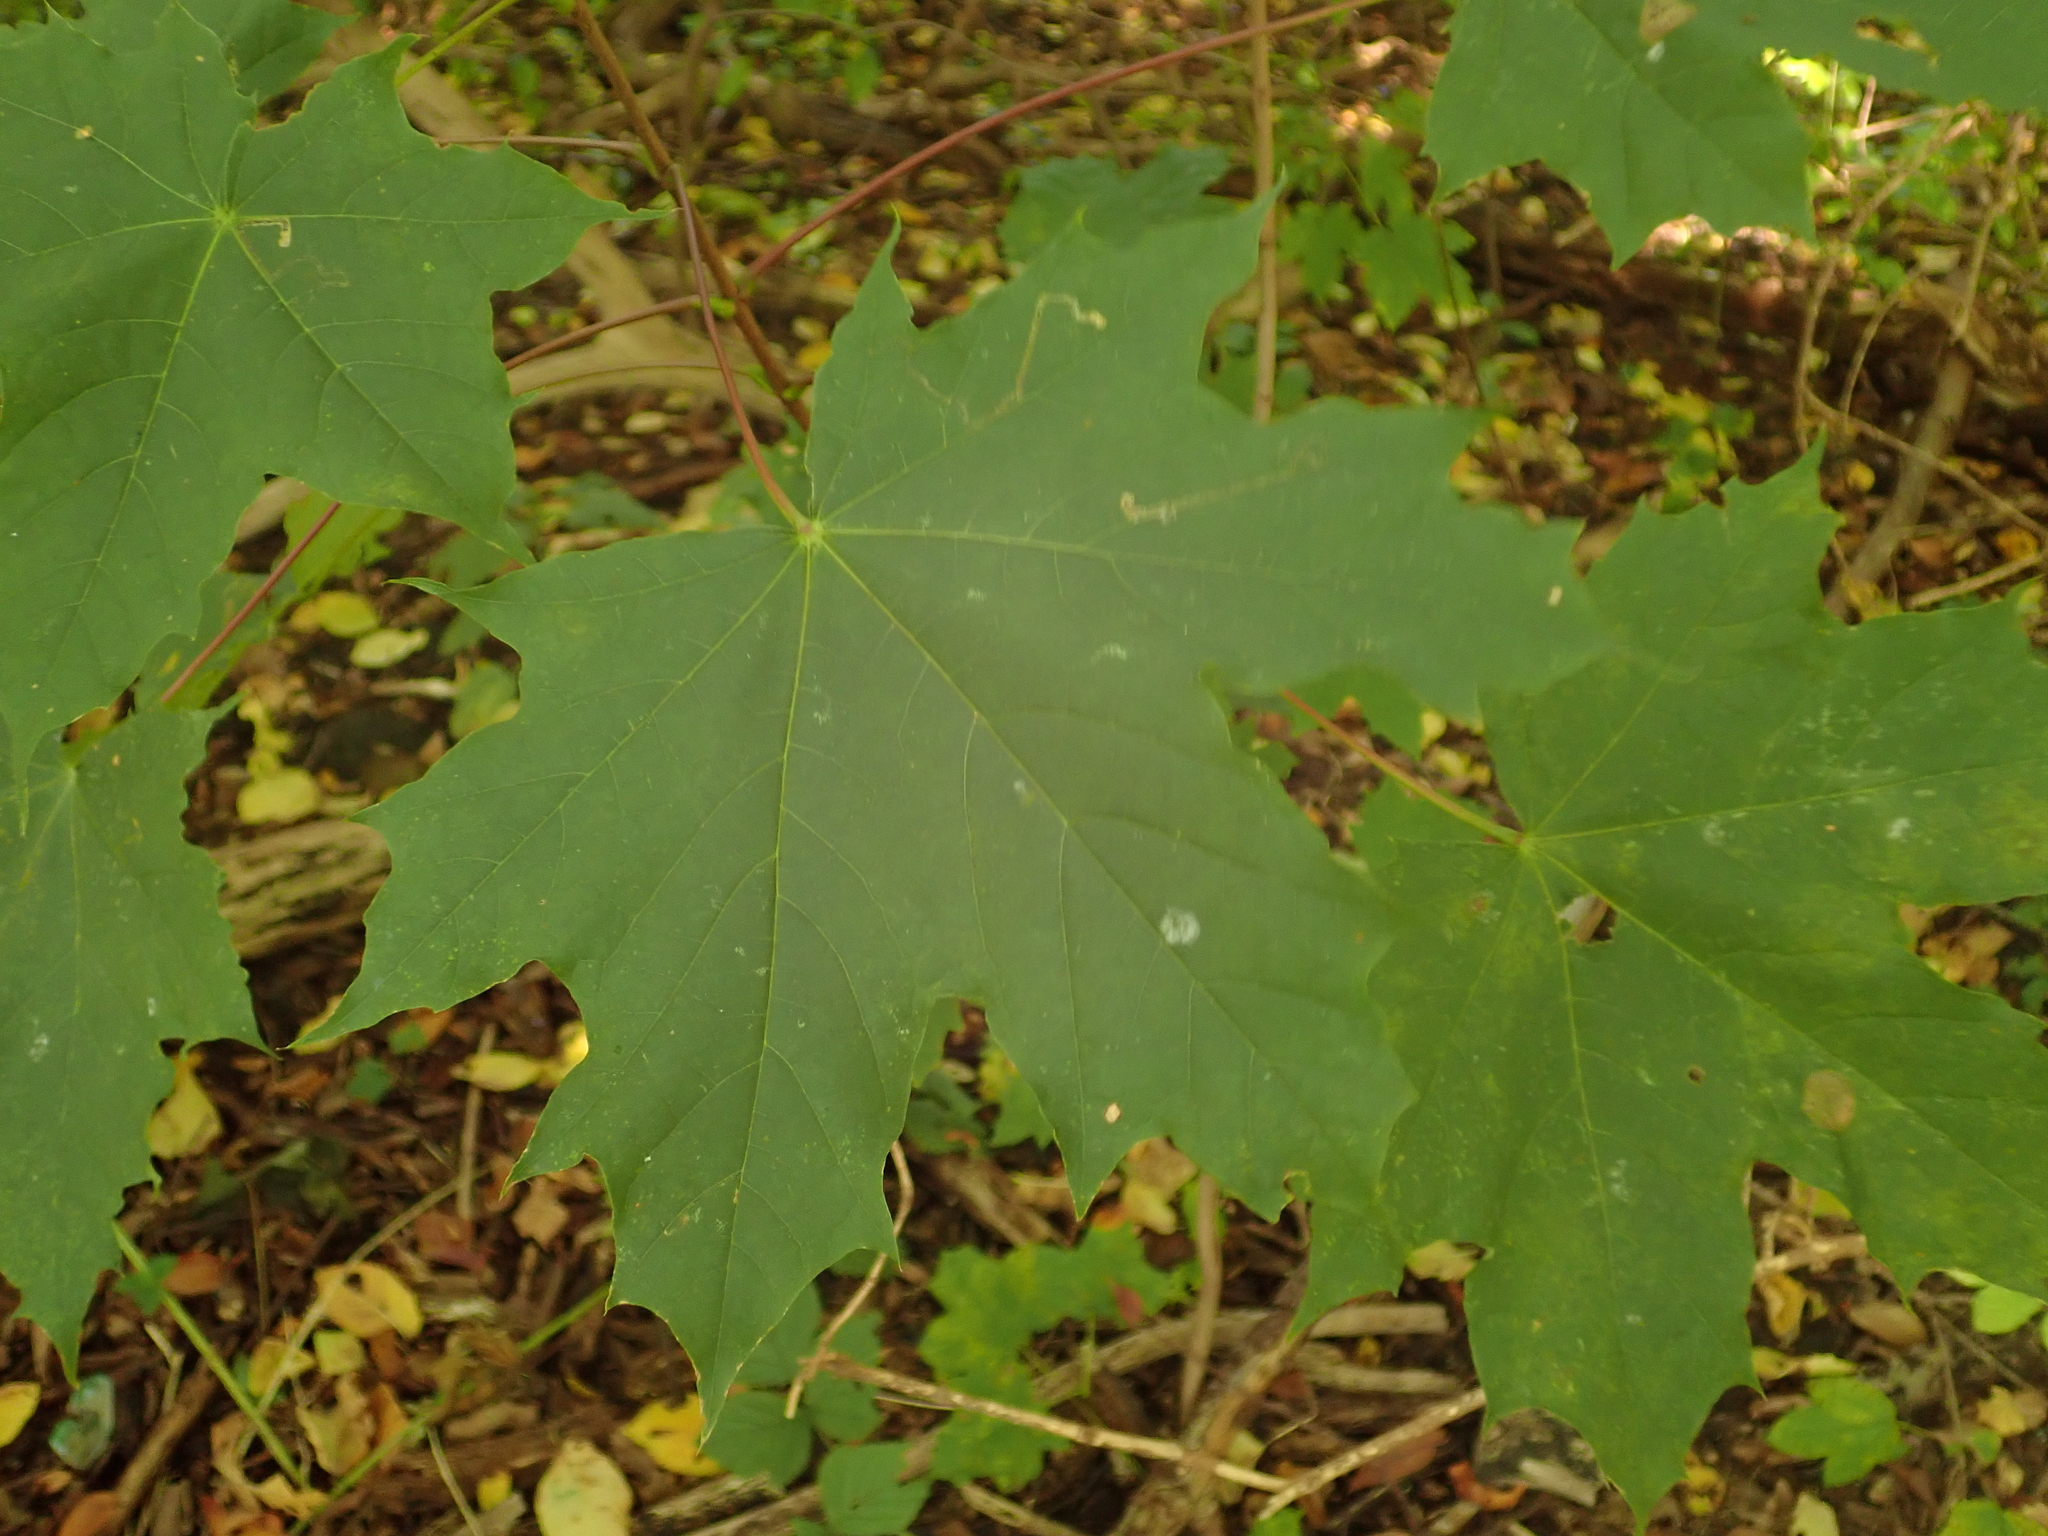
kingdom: Plantae
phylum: Tracheophyta
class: Magnoliopsida
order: Sapindales
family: Sapindaceae
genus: Acer
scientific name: Acer platanoides
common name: Norway maple
